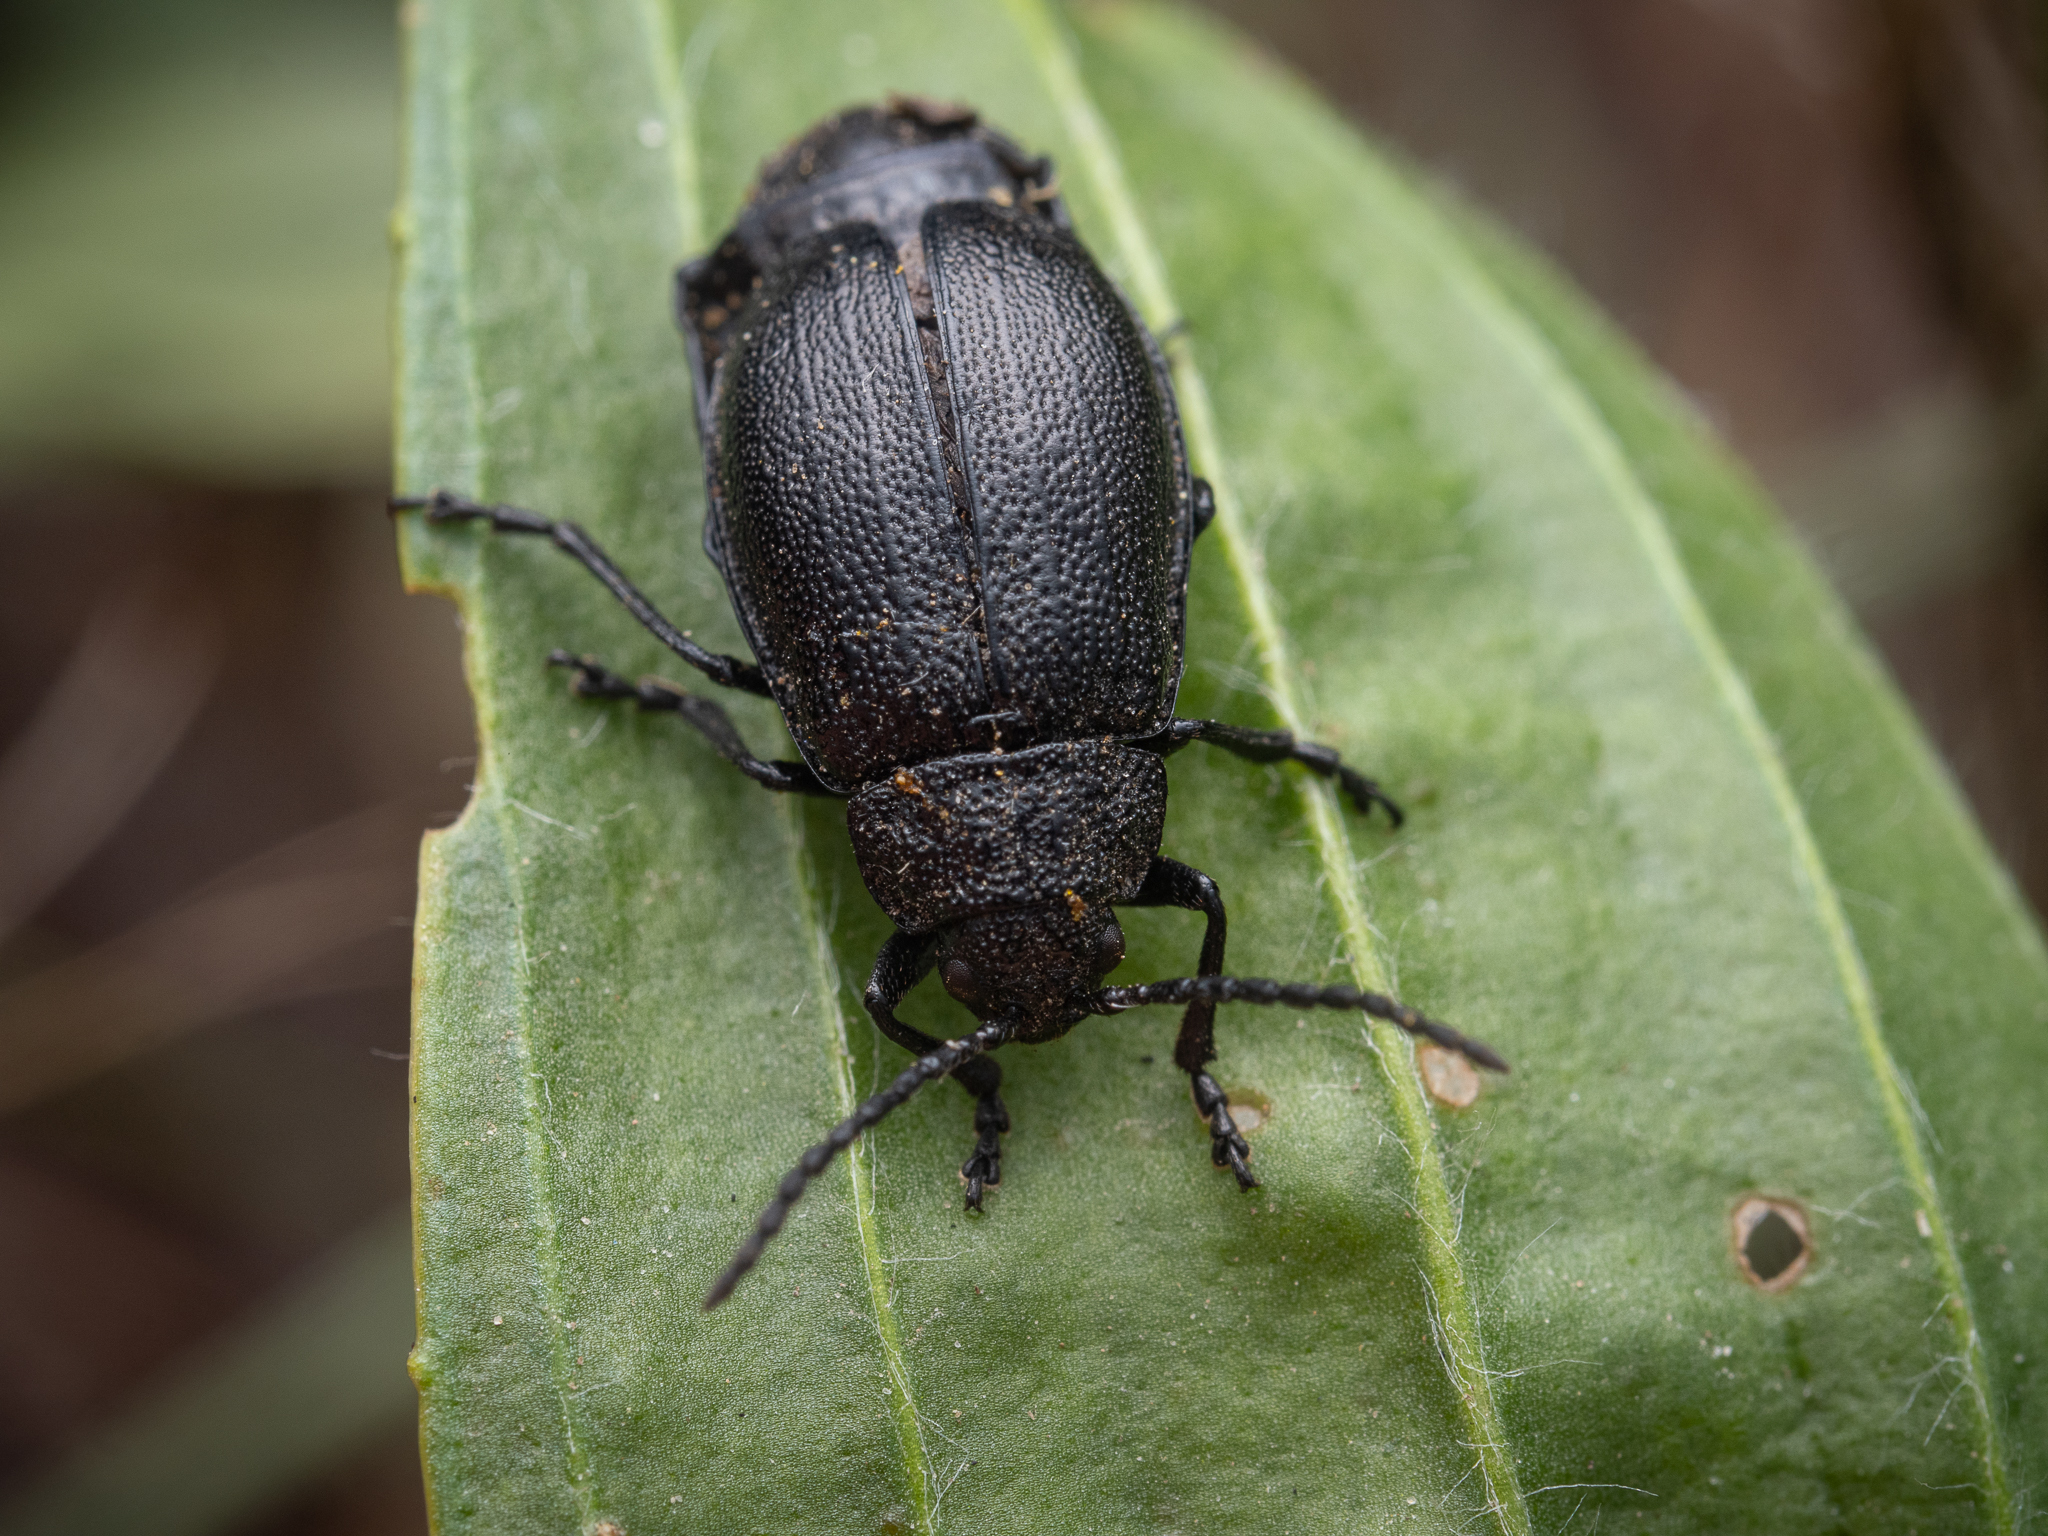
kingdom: Animalia
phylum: Arthropoda
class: Insecta
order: Coleoptera
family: Chrysomelidae
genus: Galeruca
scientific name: Galeruca tanaceti
